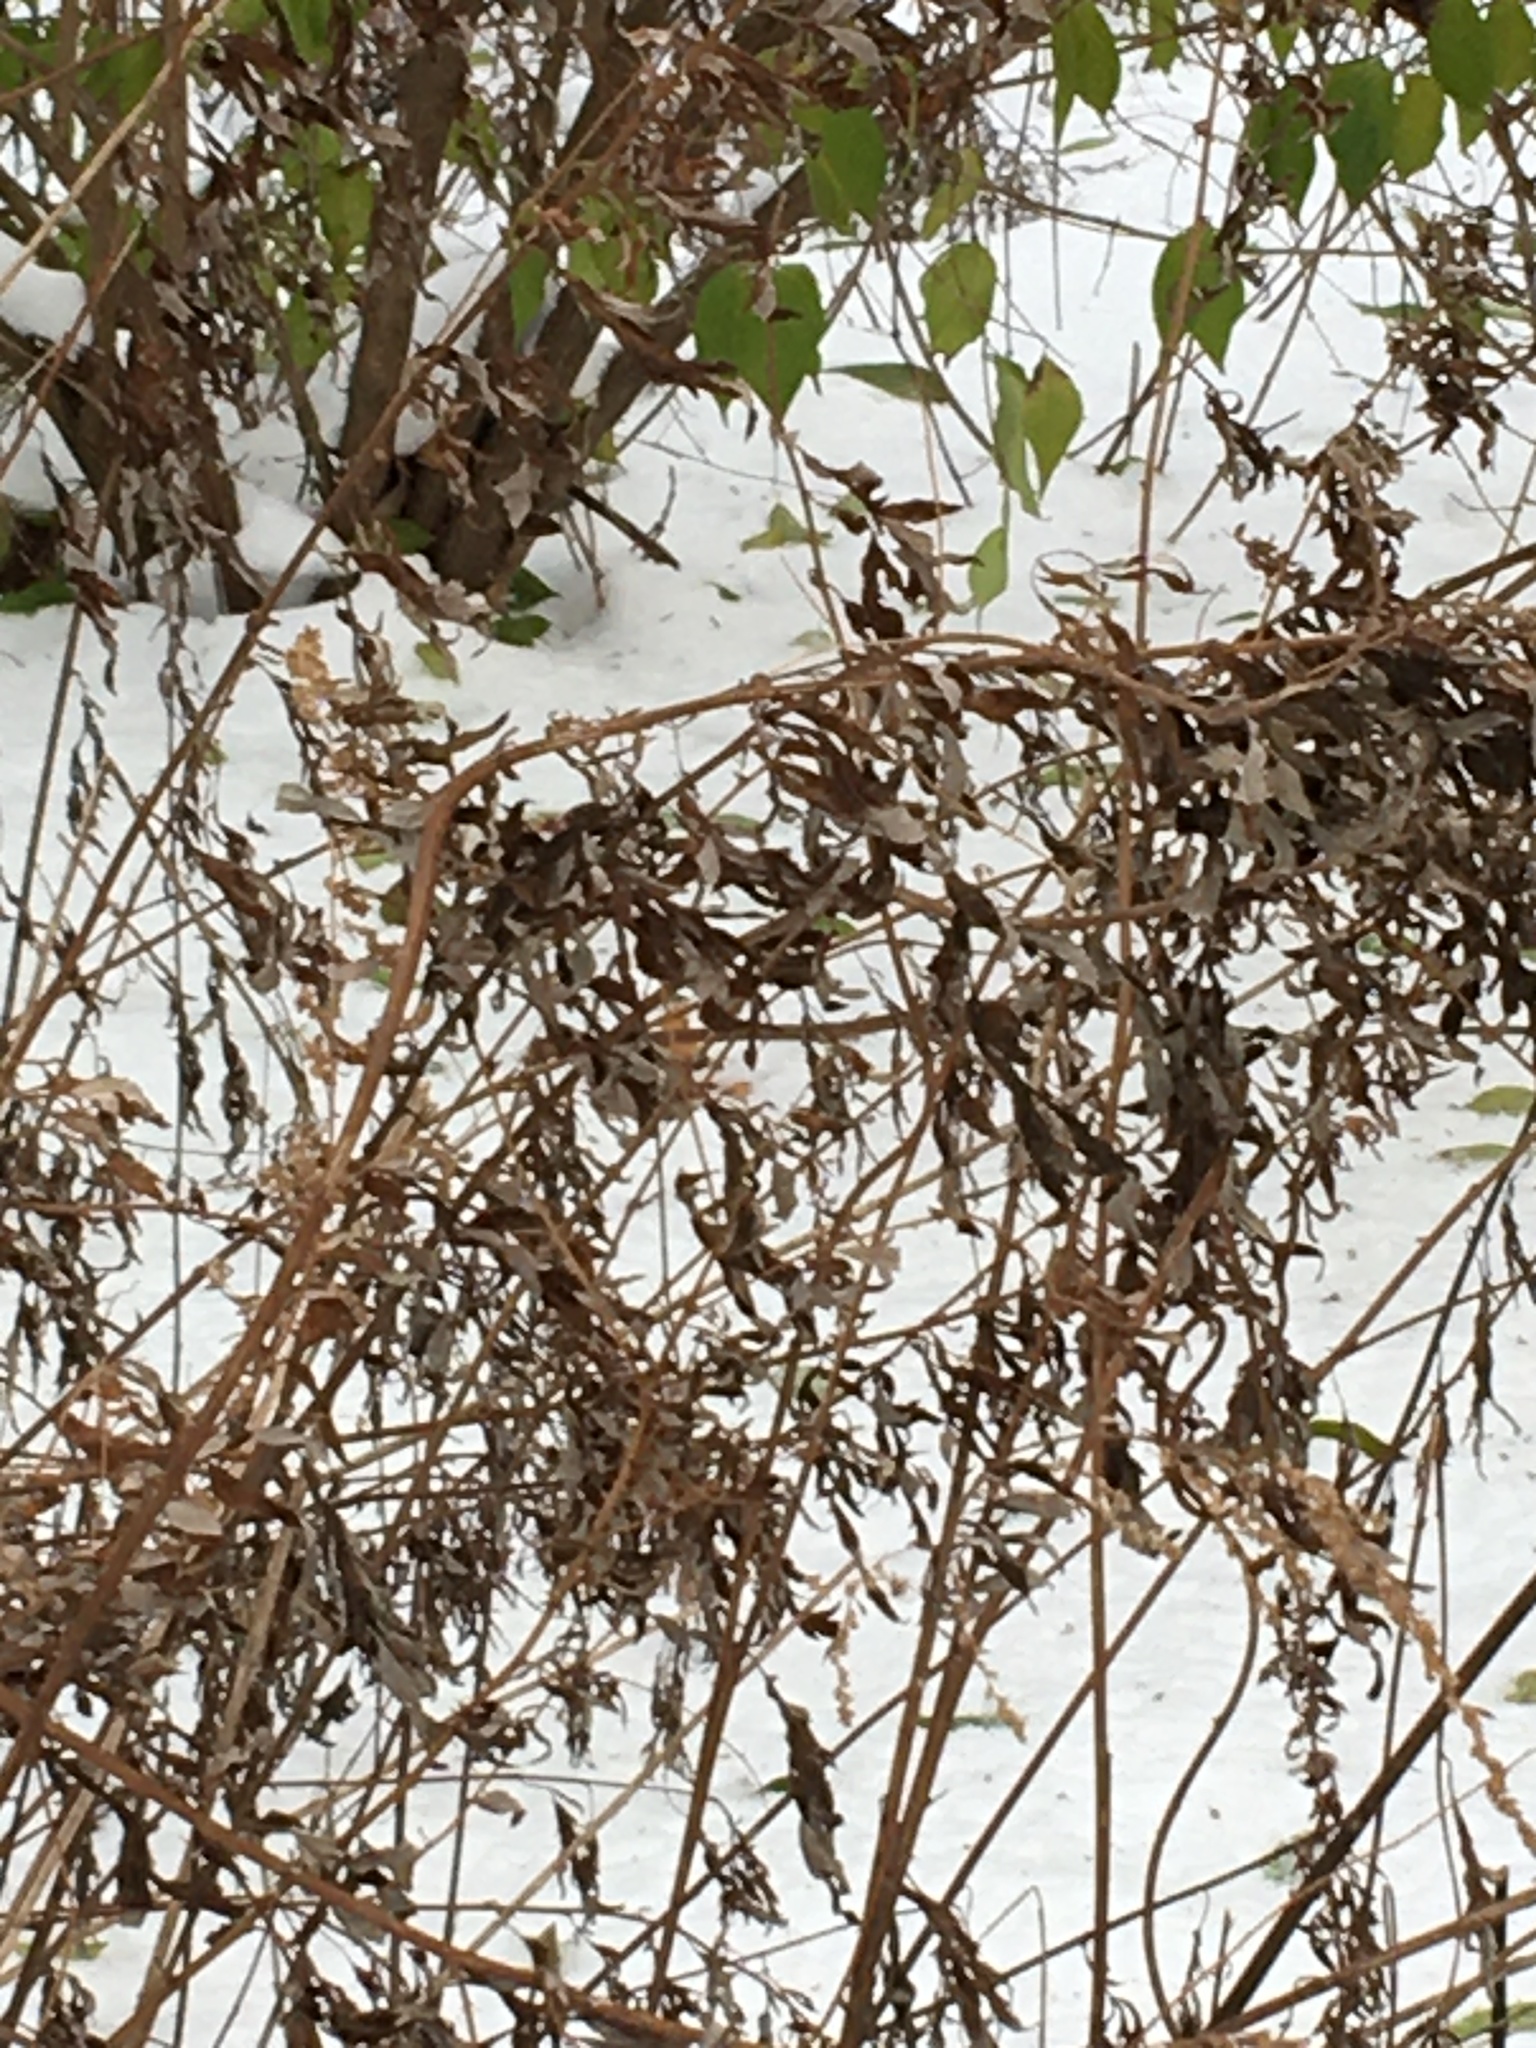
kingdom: Plantae
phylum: Tracheophyta
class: Magnoliopsida
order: Asterales
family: Asteraceae
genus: Artemisia
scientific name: Artemisia vulgaris
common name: Mugwort
